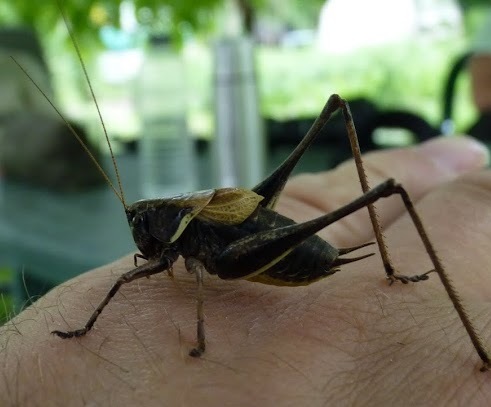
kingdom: Animalia
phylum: Arthropoda
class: Insecta
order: Orthoptera
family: Tettigoniidae
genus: Pholidoptera
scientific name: Pholidoptera aptera
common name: Alpine dark bush-cricket
